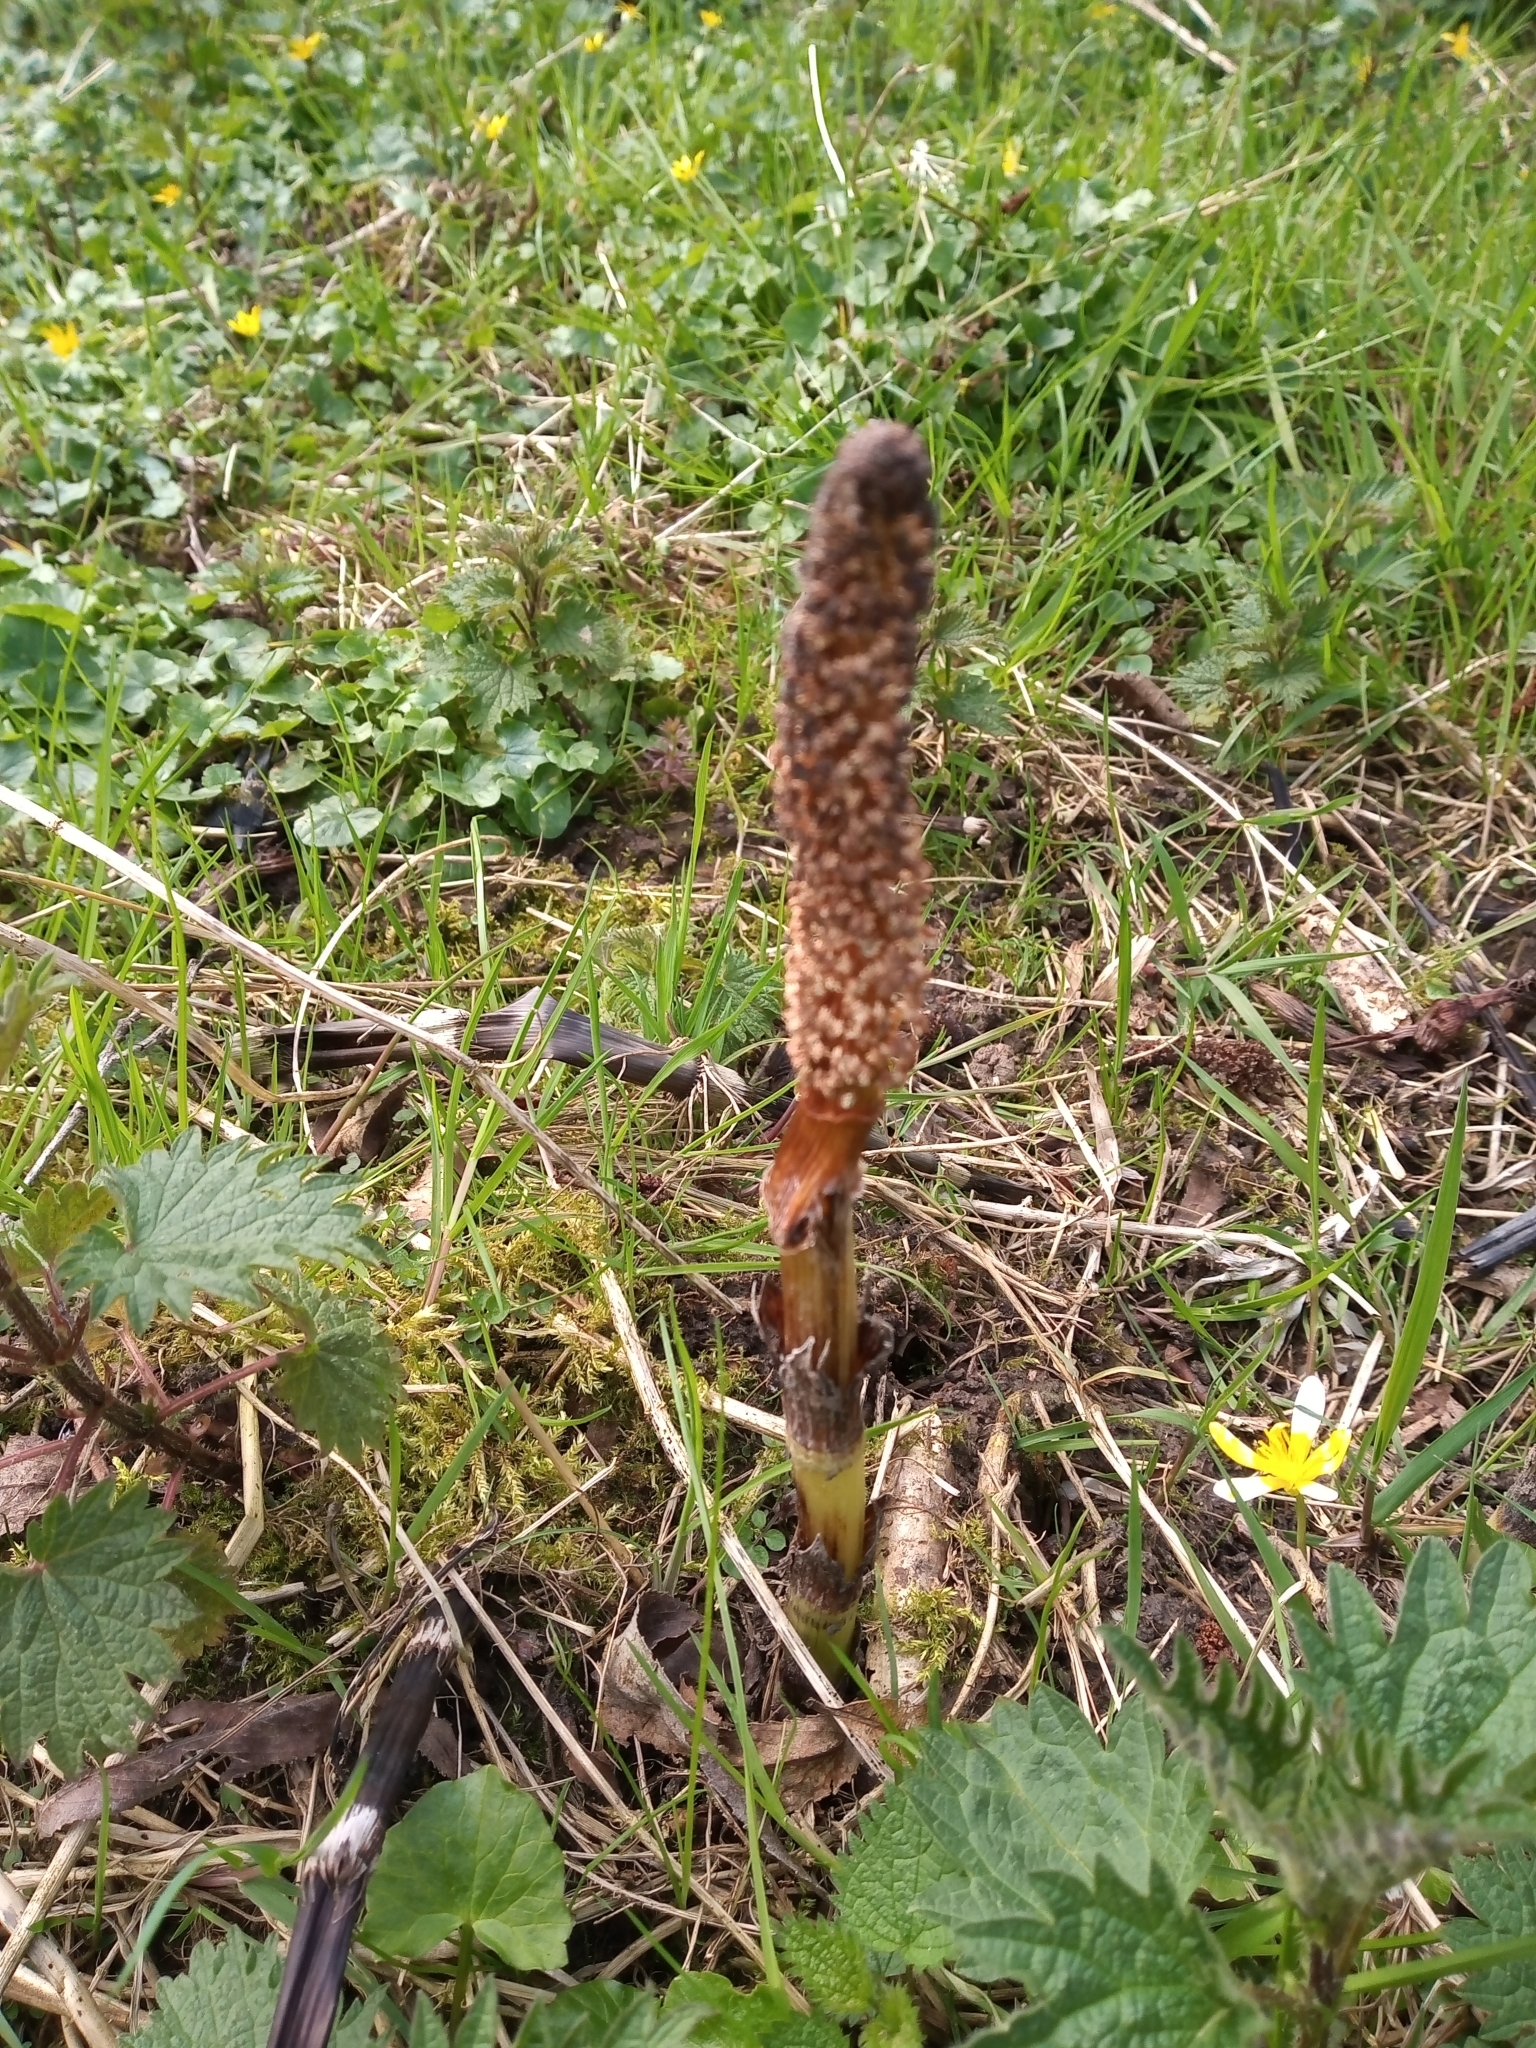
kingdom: Plantae
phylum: Tracheophyta
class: Polypodiopsida
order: Equisetales
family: Equisetaceae
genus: Equisetum
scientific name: Equisetum telmateia
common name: Great horsetail
